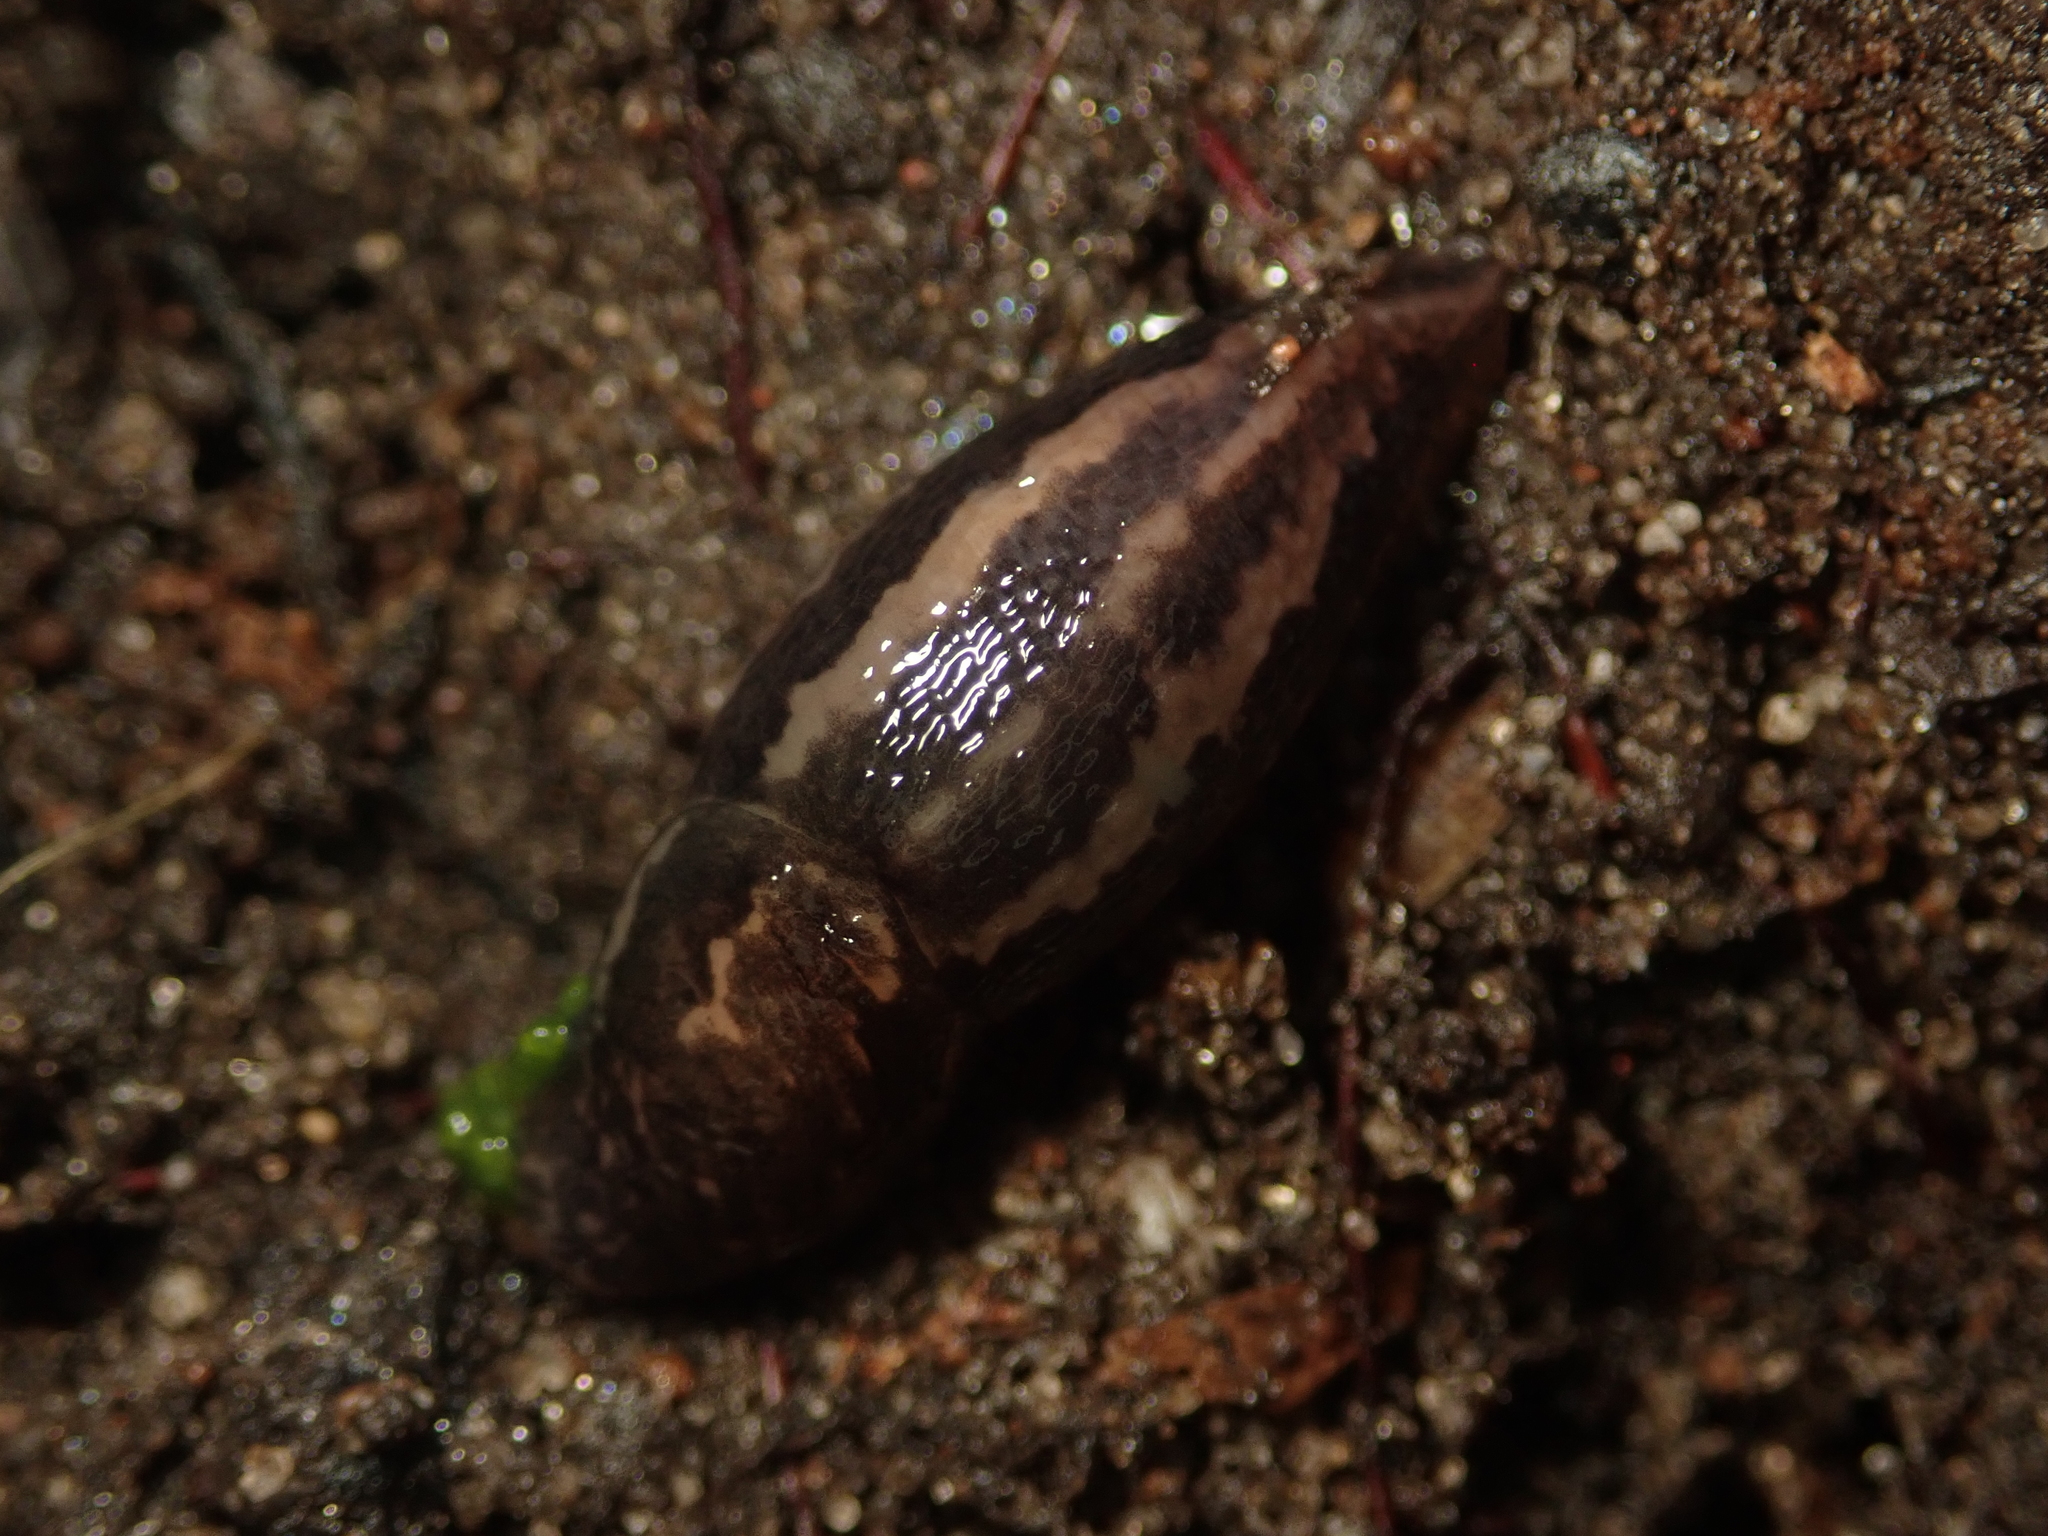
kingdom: Animalia
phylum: Mollusca
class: Gastropoda
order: Stylommatophora
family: Limacidae
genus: Limax
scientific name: Limax maximus
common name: Great grey slug
